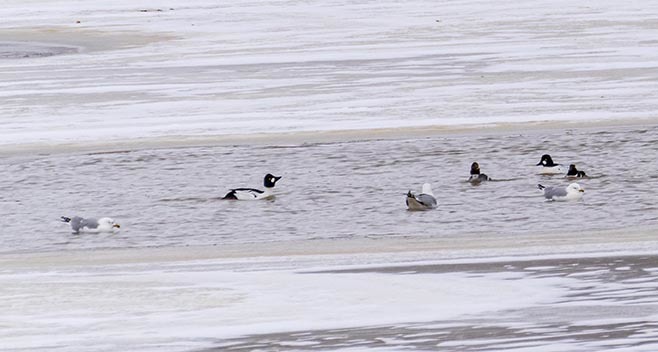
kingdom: Animalia
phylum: Chordata
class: Aves
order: Anseriformes
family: Anatidae
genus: Bucephala
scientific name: Bucephala clangula
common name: Common goldeneye
